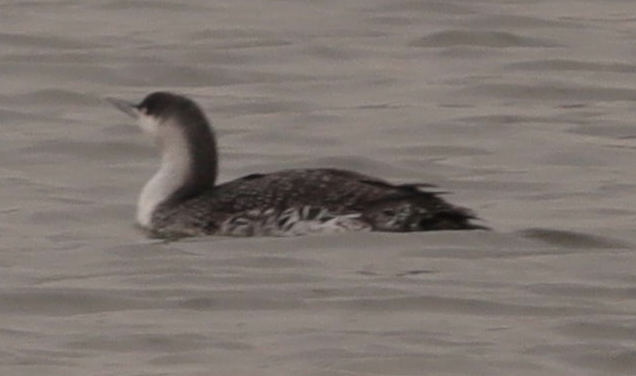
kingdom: Animalia
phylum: Chordata
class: Aves
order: Gaviiformes
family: Gaviidae
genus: Gavia
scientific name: Gavia stellata
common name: Red-throated loon
